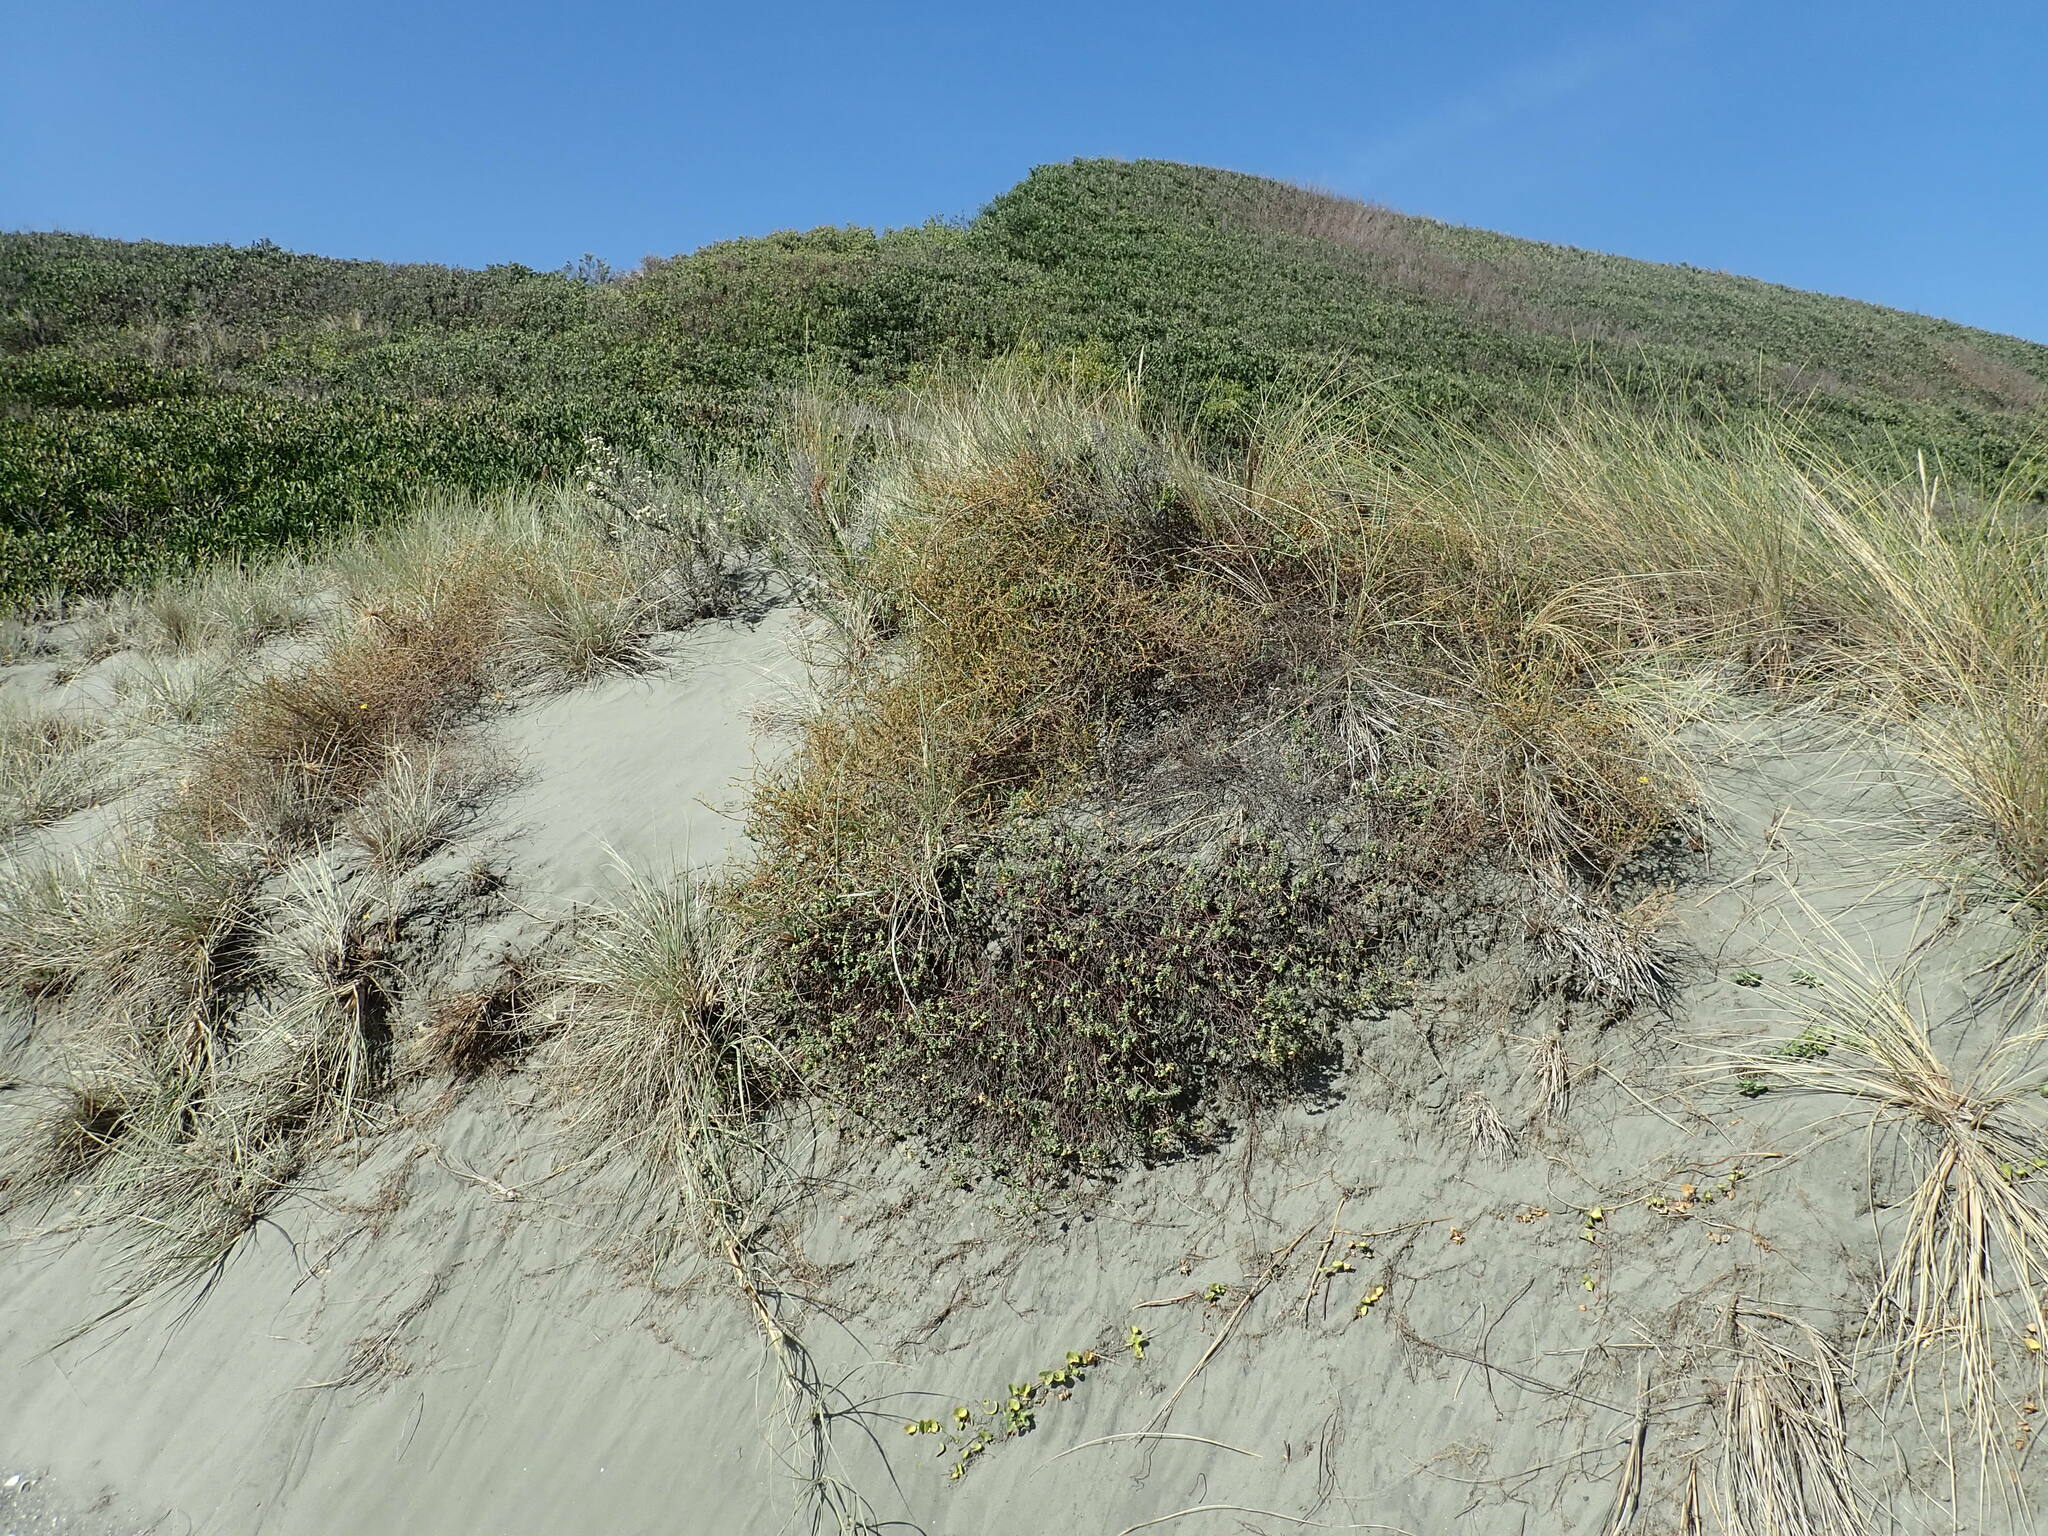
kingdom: Plantae
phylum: Tracheophyta
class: Magnoliopsida
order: Malvales
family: Thymelaeaceae
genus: Pimelea
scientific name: Pimelea villosa
